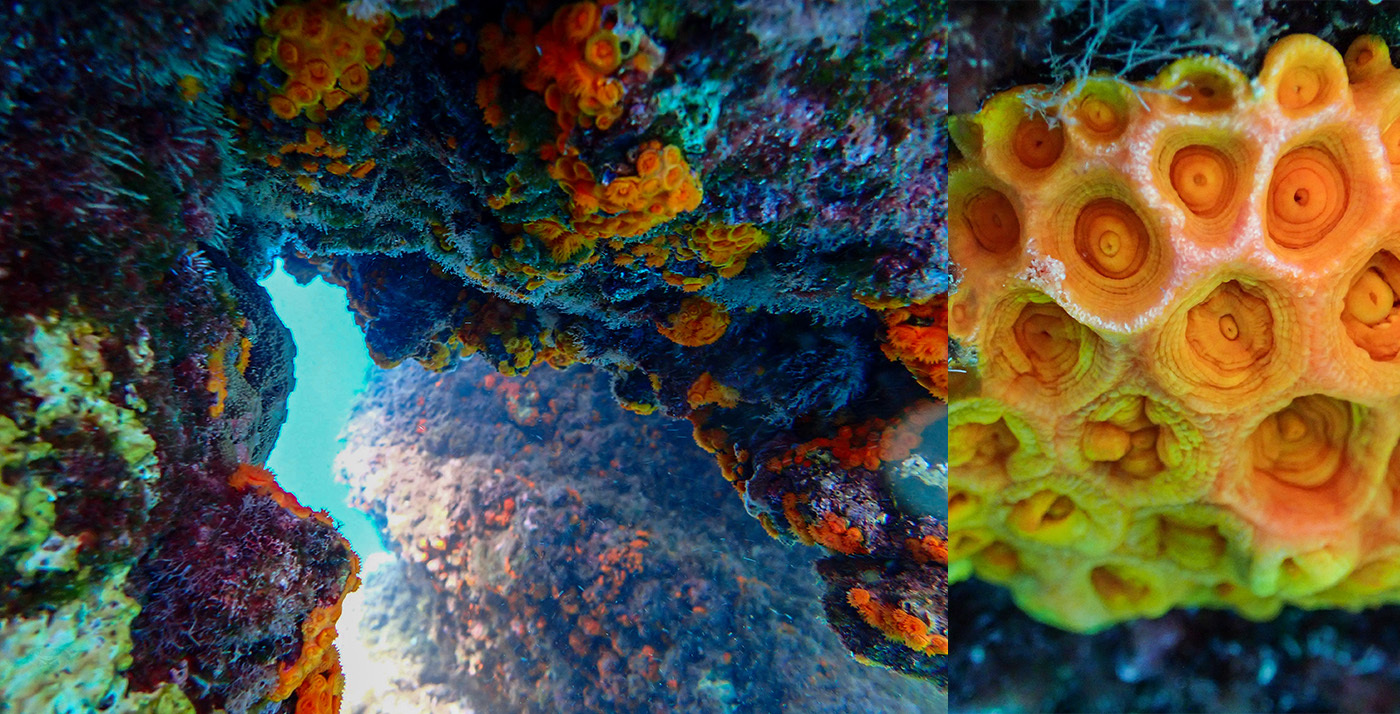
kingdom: Animalia
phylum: Cnidaria
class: Anthozoa
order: Scleractinia
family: Dendrophylliidae
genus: Astroides
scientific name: Astroides calycularis
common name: Star coral
